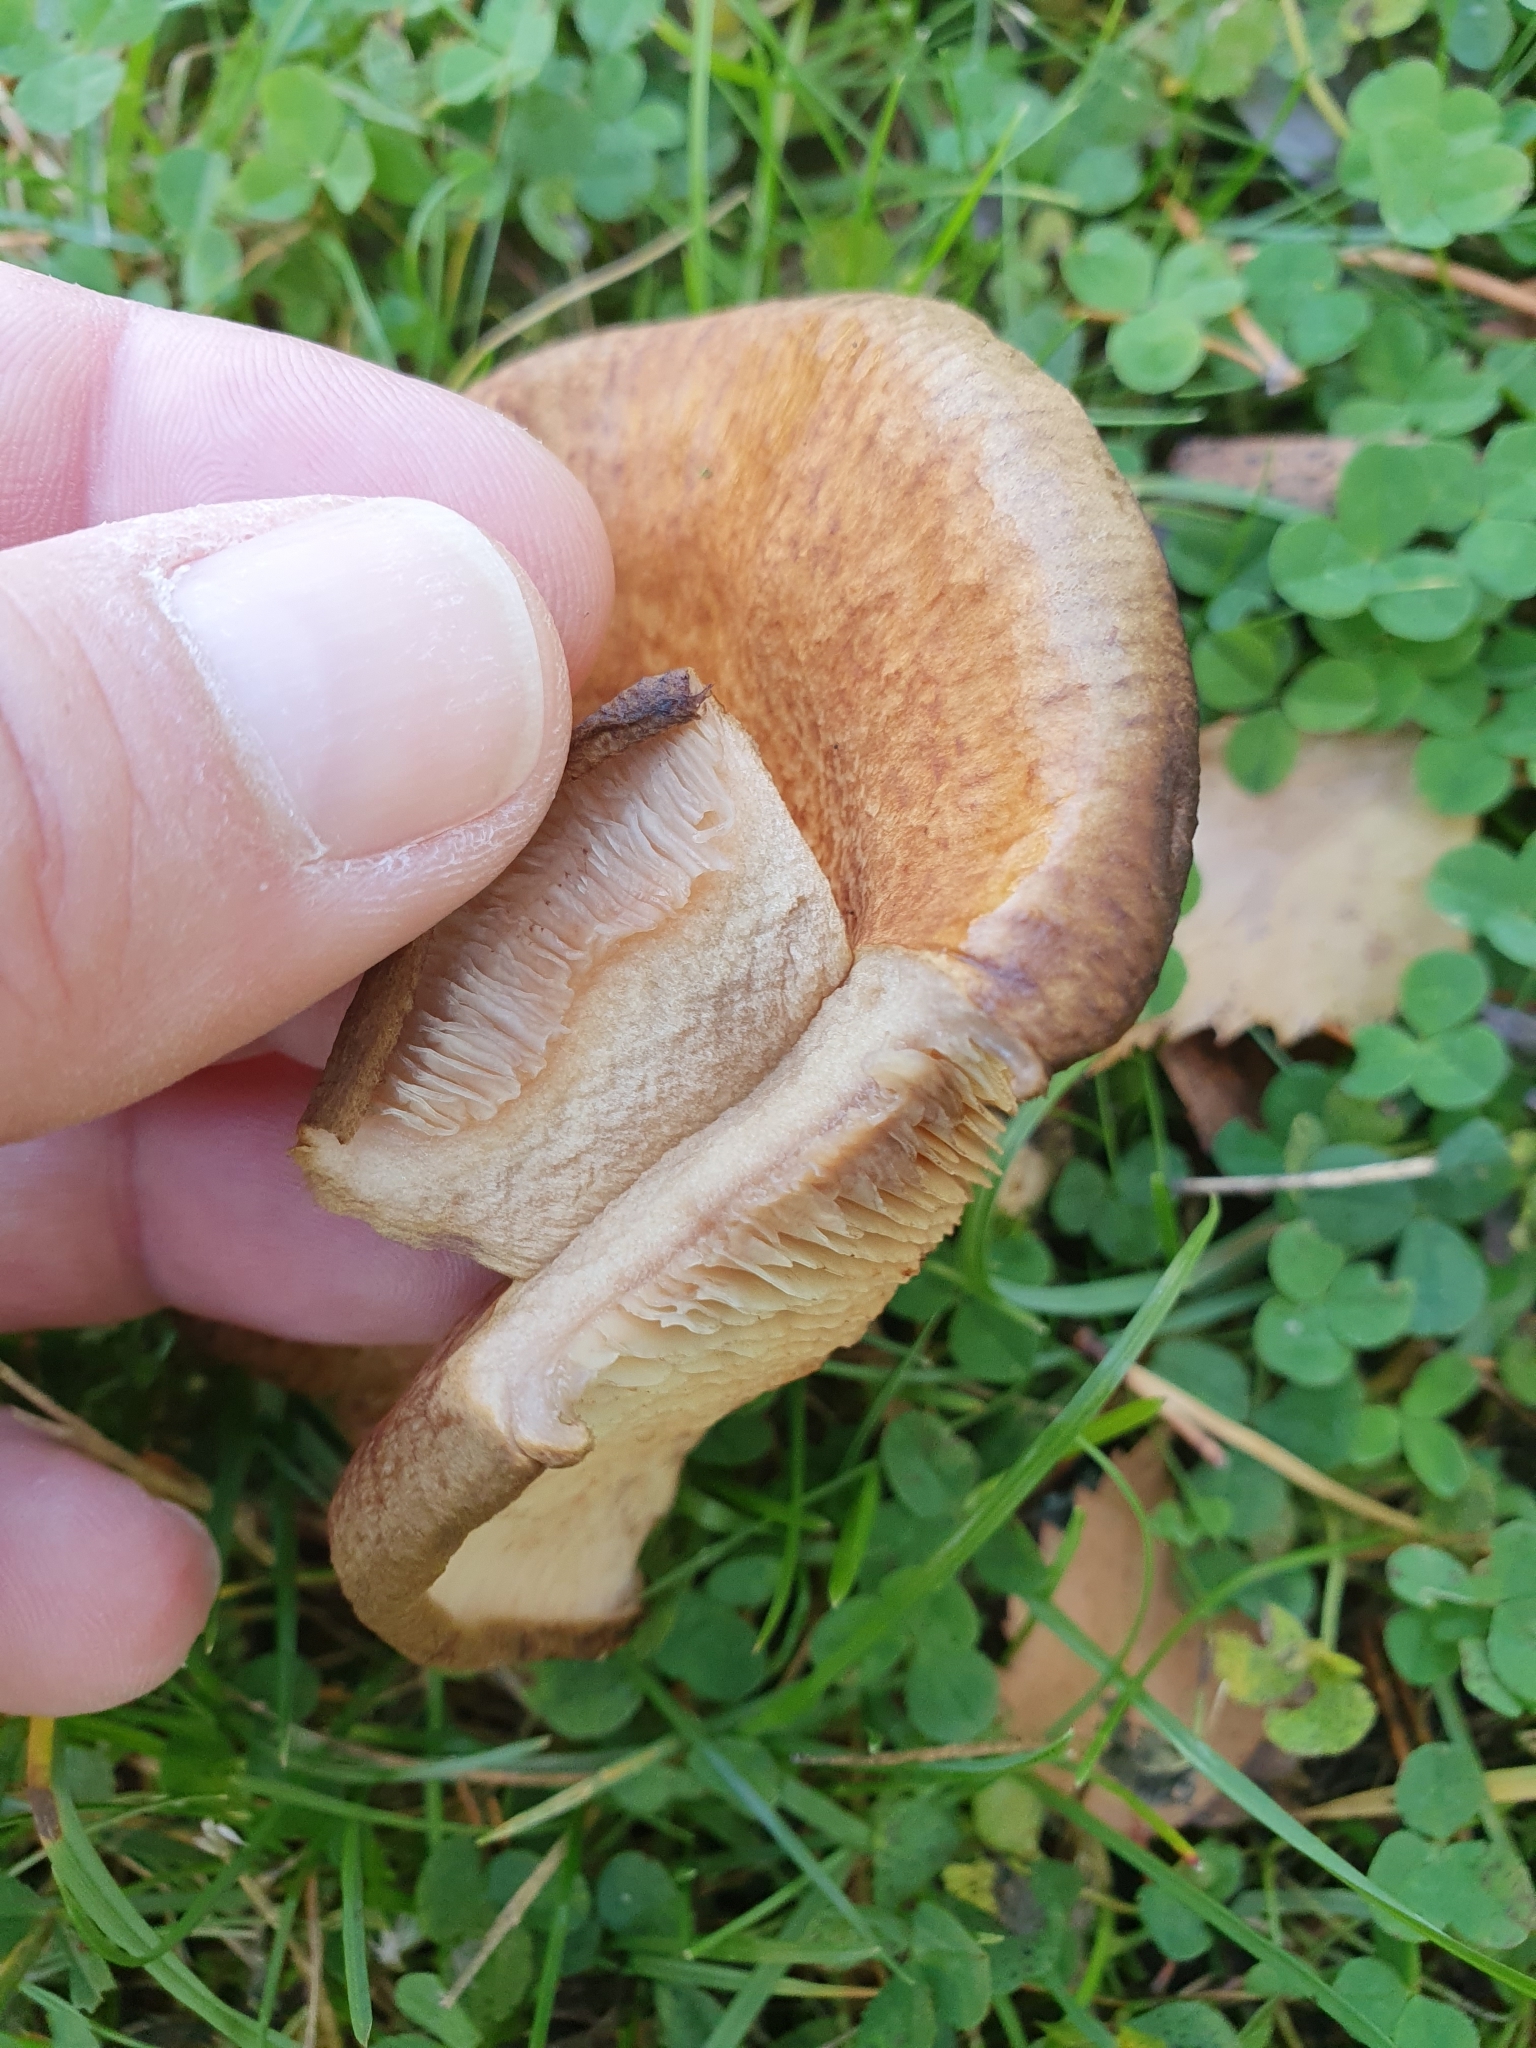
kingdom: Fungi
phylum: Basidiomycota
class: Agaricomycetes
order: Boletales
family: Paxillaceae
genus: Paxillus
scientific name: Paxillus involutus
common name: Brown roll rim
